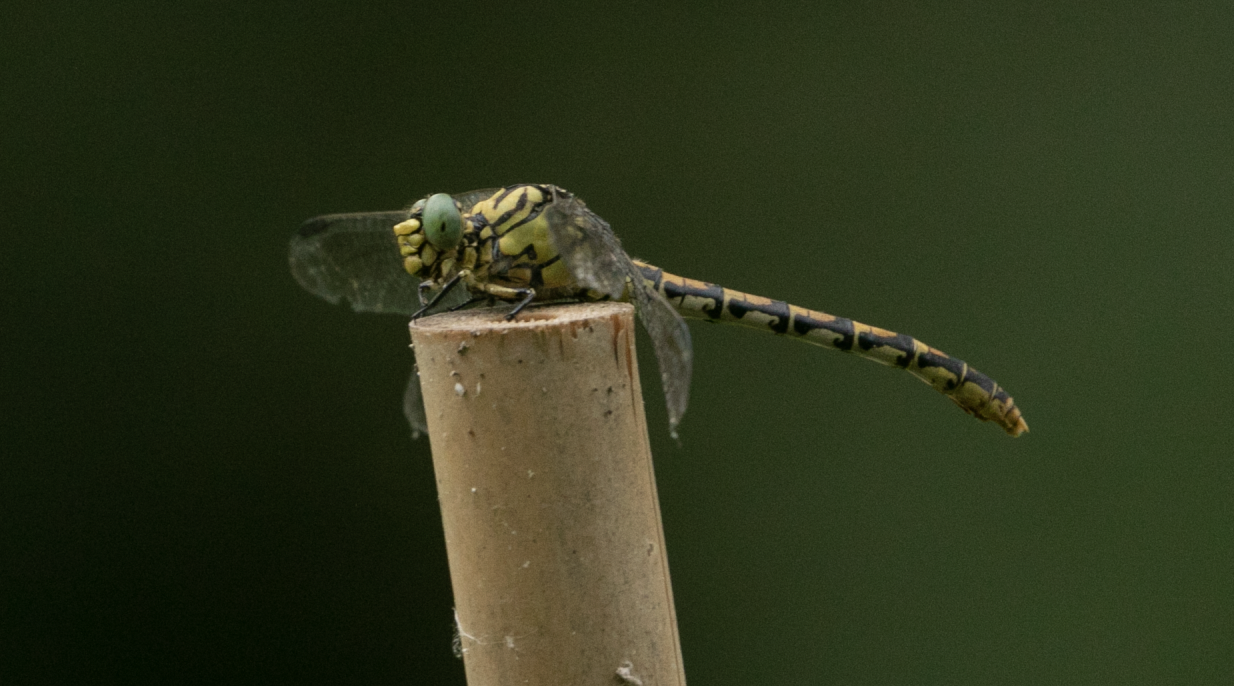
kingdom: Animalia
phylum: Arthropoda
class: Insecta
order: Odonata
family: Gomphidae
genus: Onychogomphus
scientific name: Onychogomphus forcipatus
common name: Small pincertail
